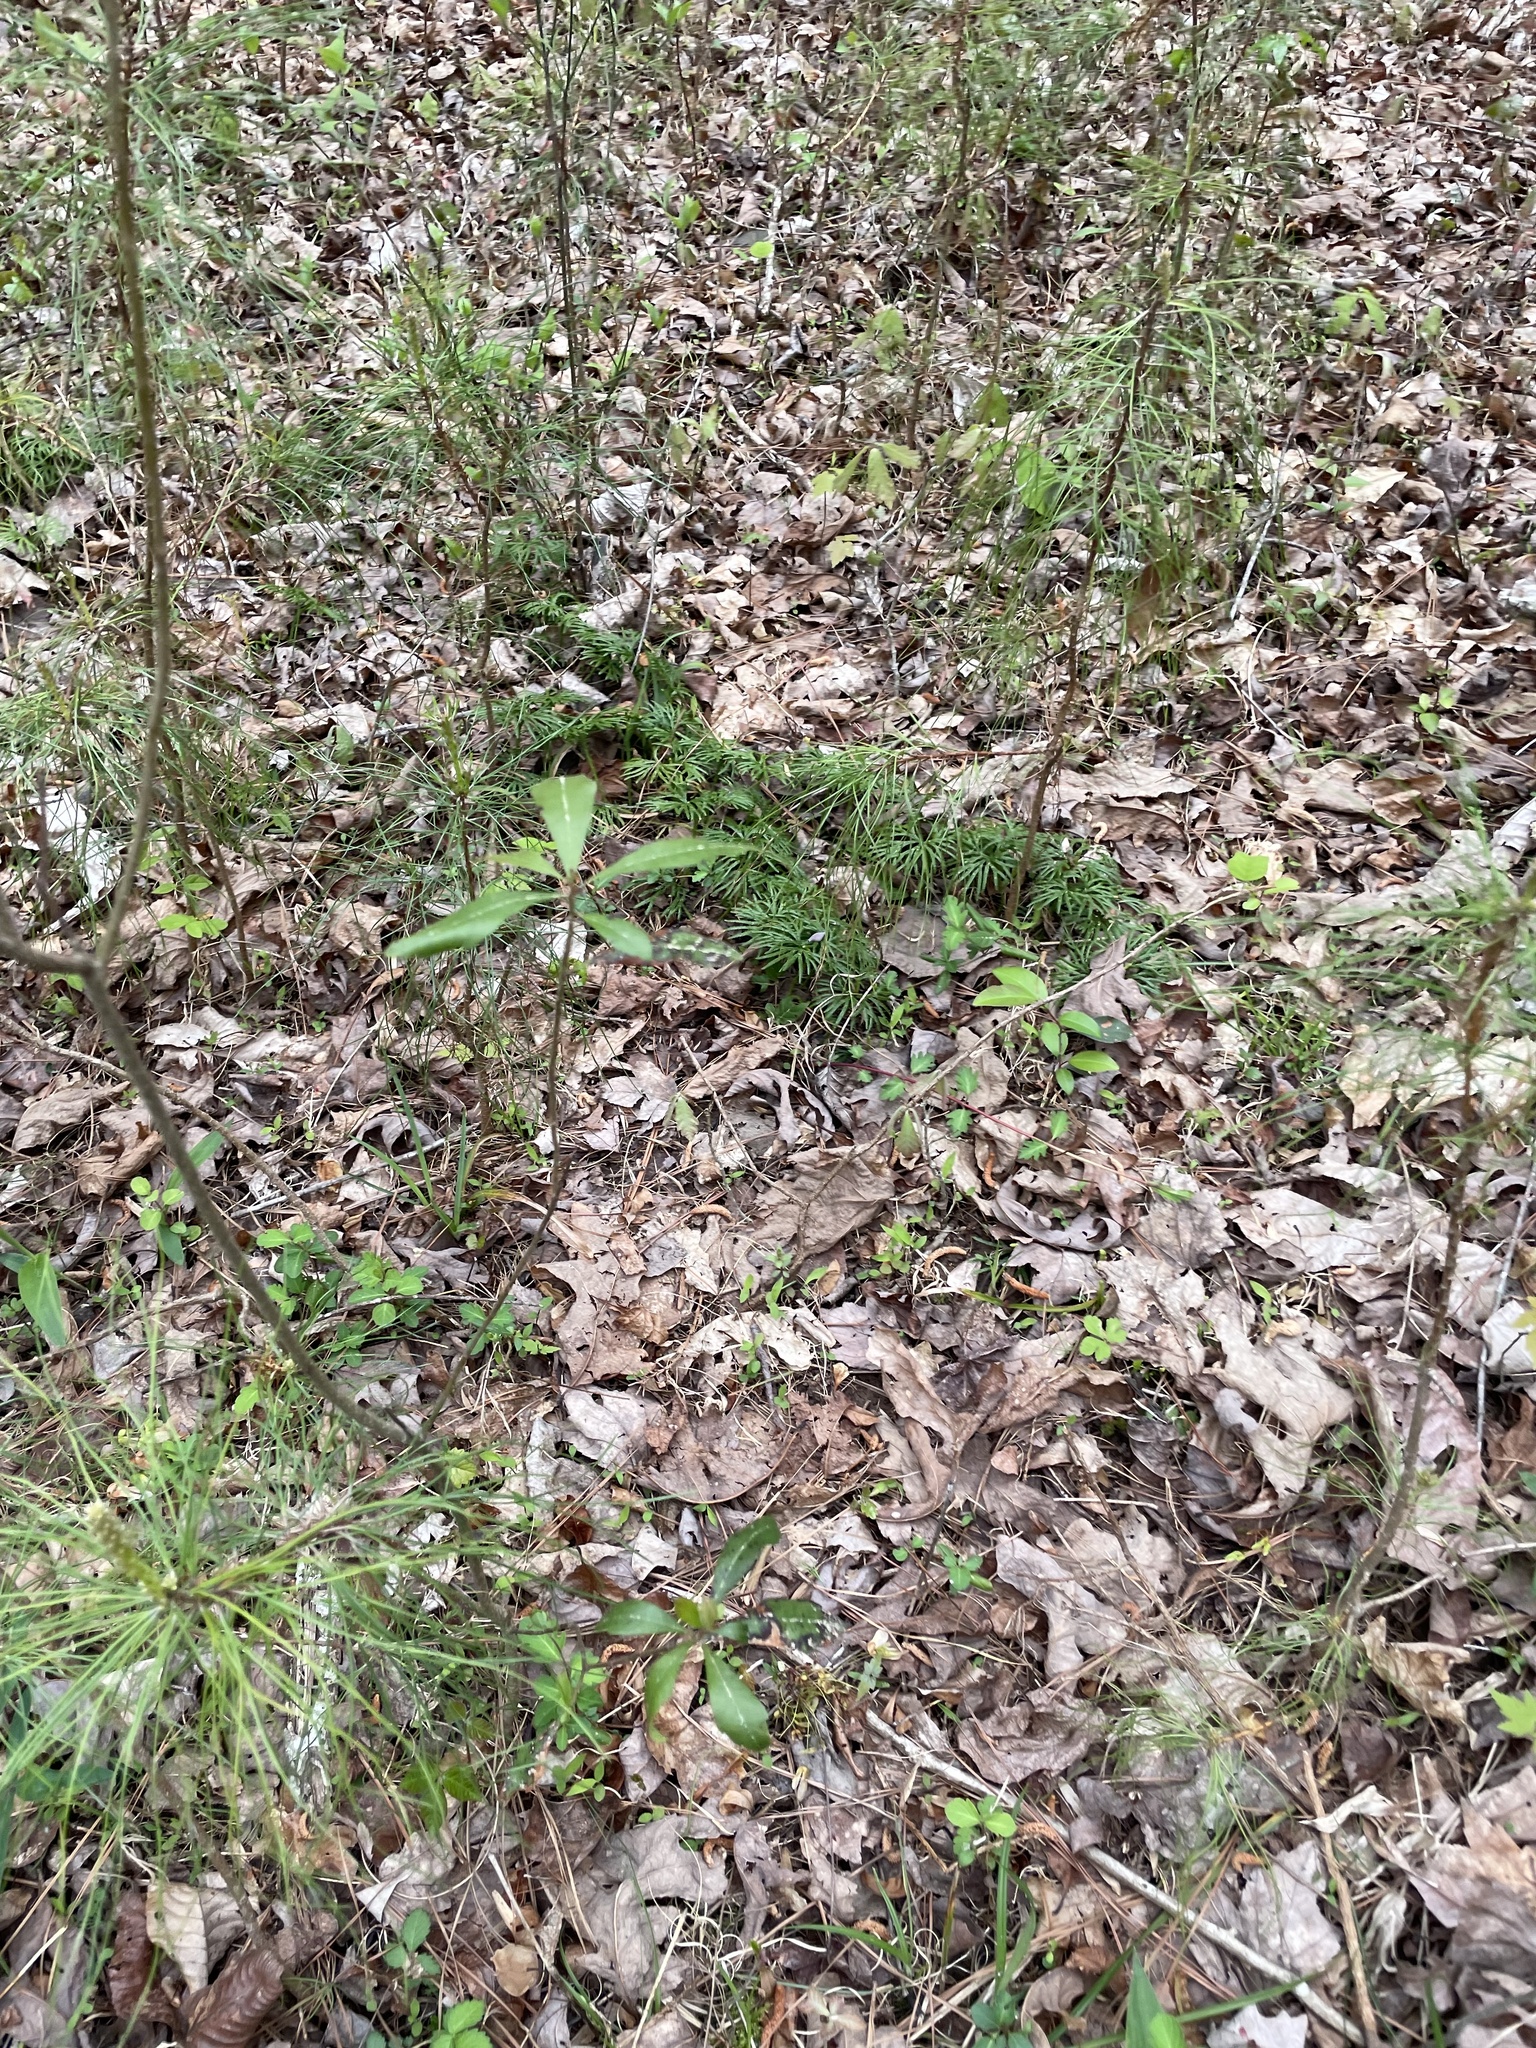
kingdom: Plantae
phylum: Tracheophyta
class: Lycopodiopsida
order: Lycopodiales
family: Lycopodiaceae
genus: Dendrolycopodium
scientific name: Dendrolycopodium obscurum
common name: Common ground-pine
